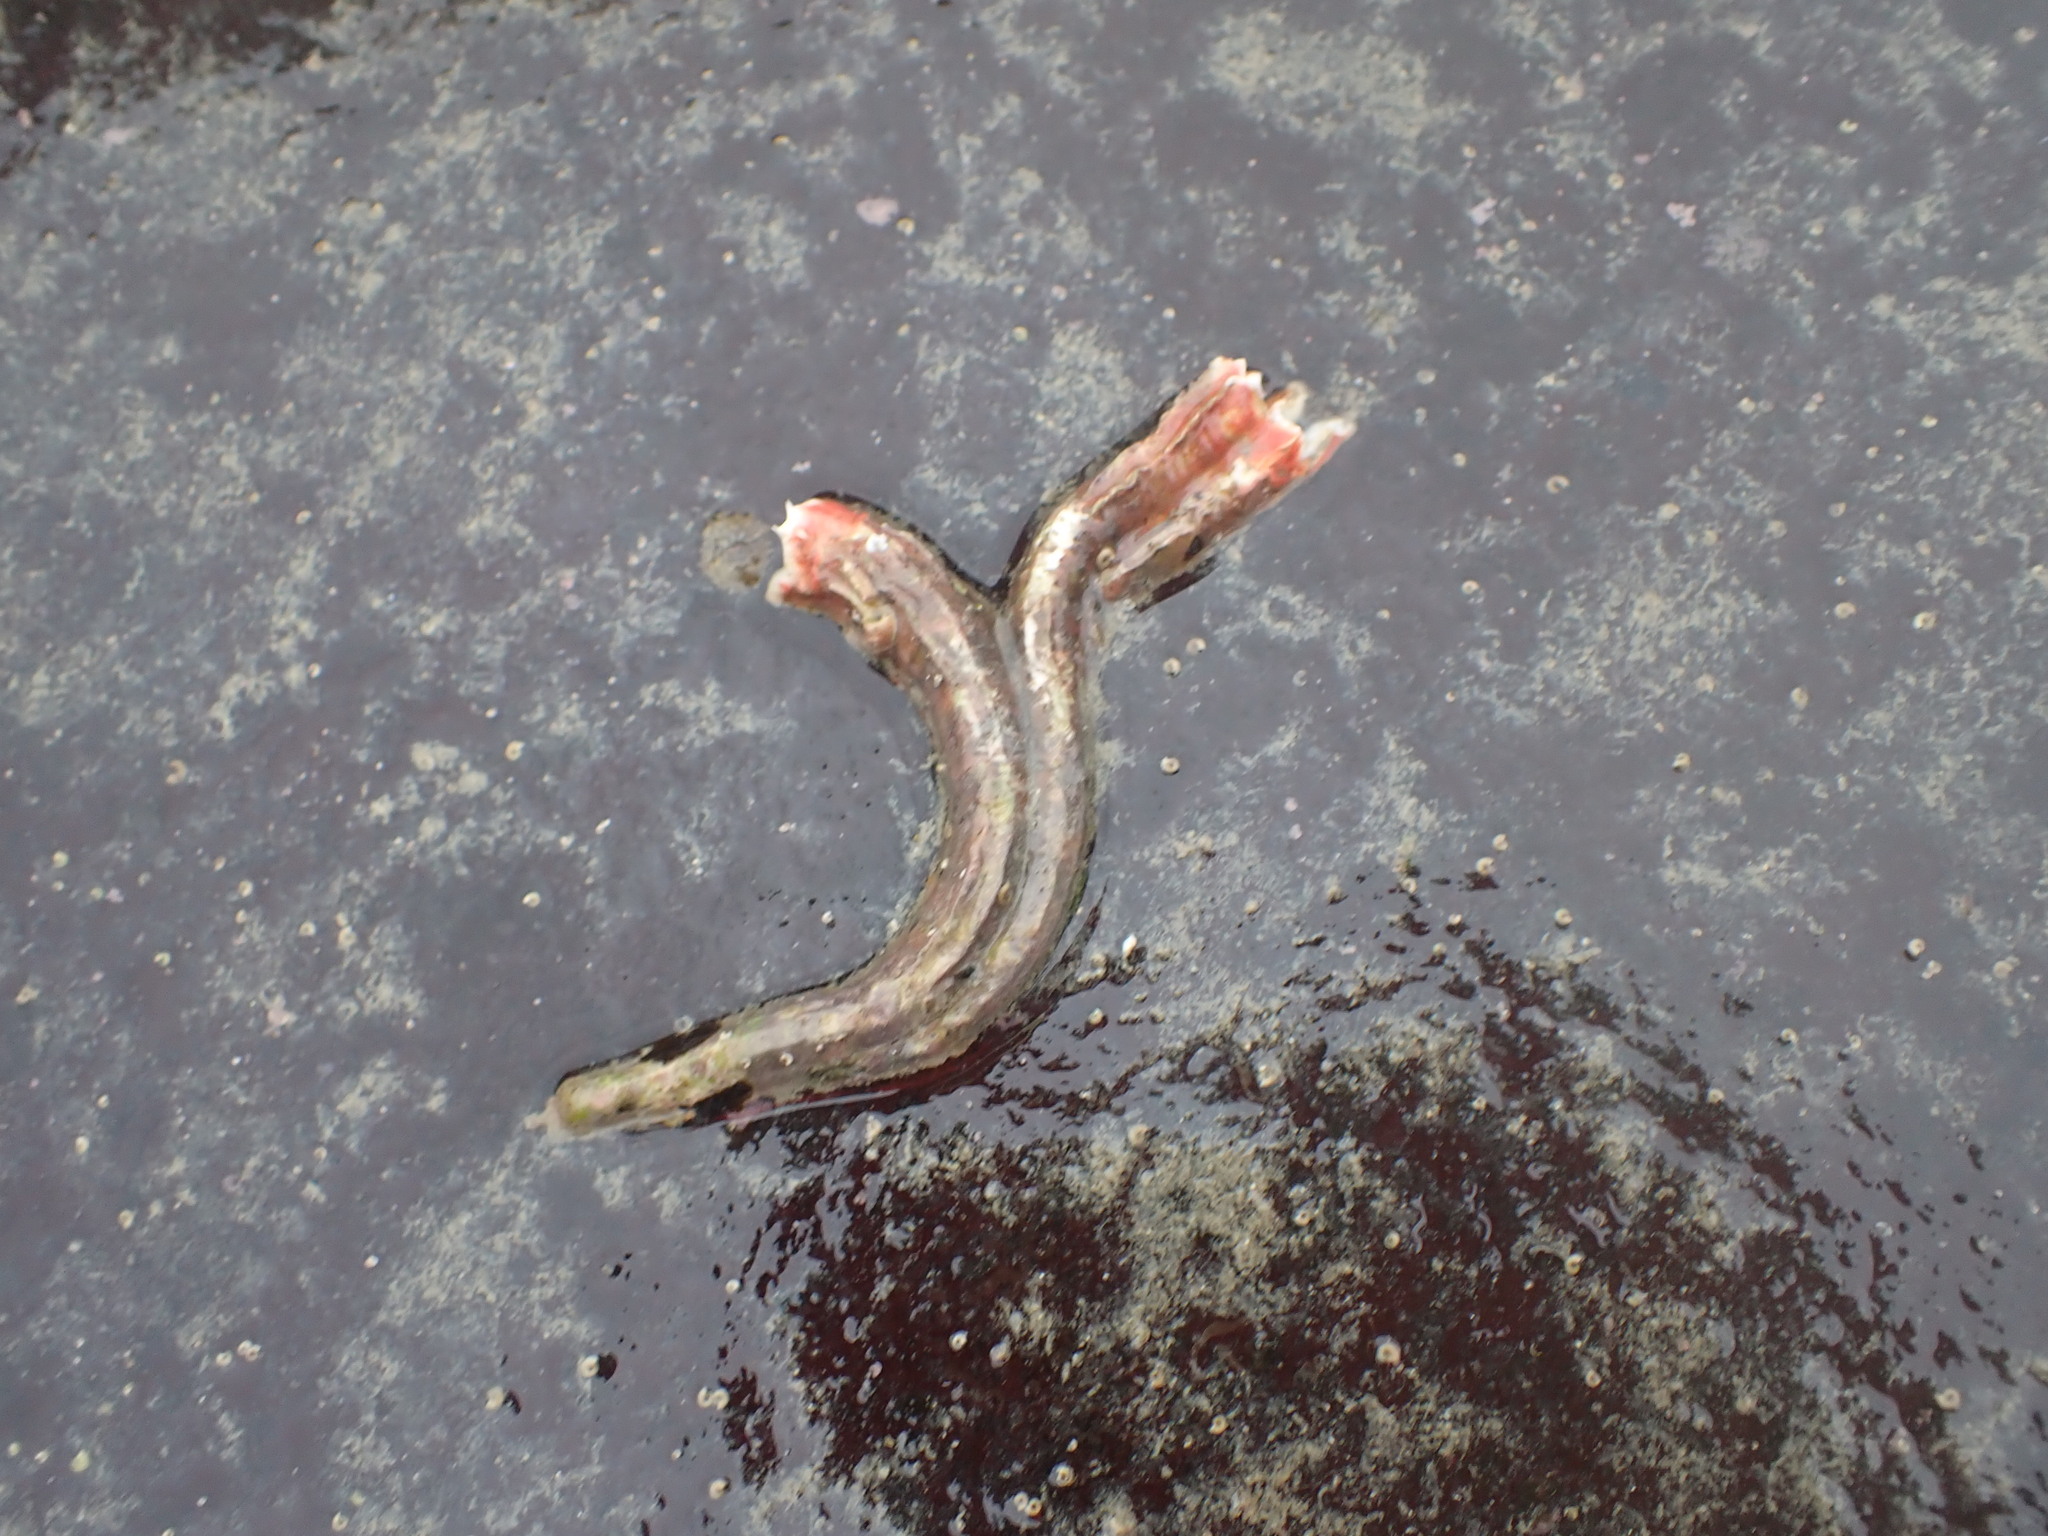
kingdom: Animalia
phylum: Annelida
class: Polychaeta
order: Sabellida
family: Serpulidae
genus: Galeolaria
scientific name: Galeolaria hystrix
